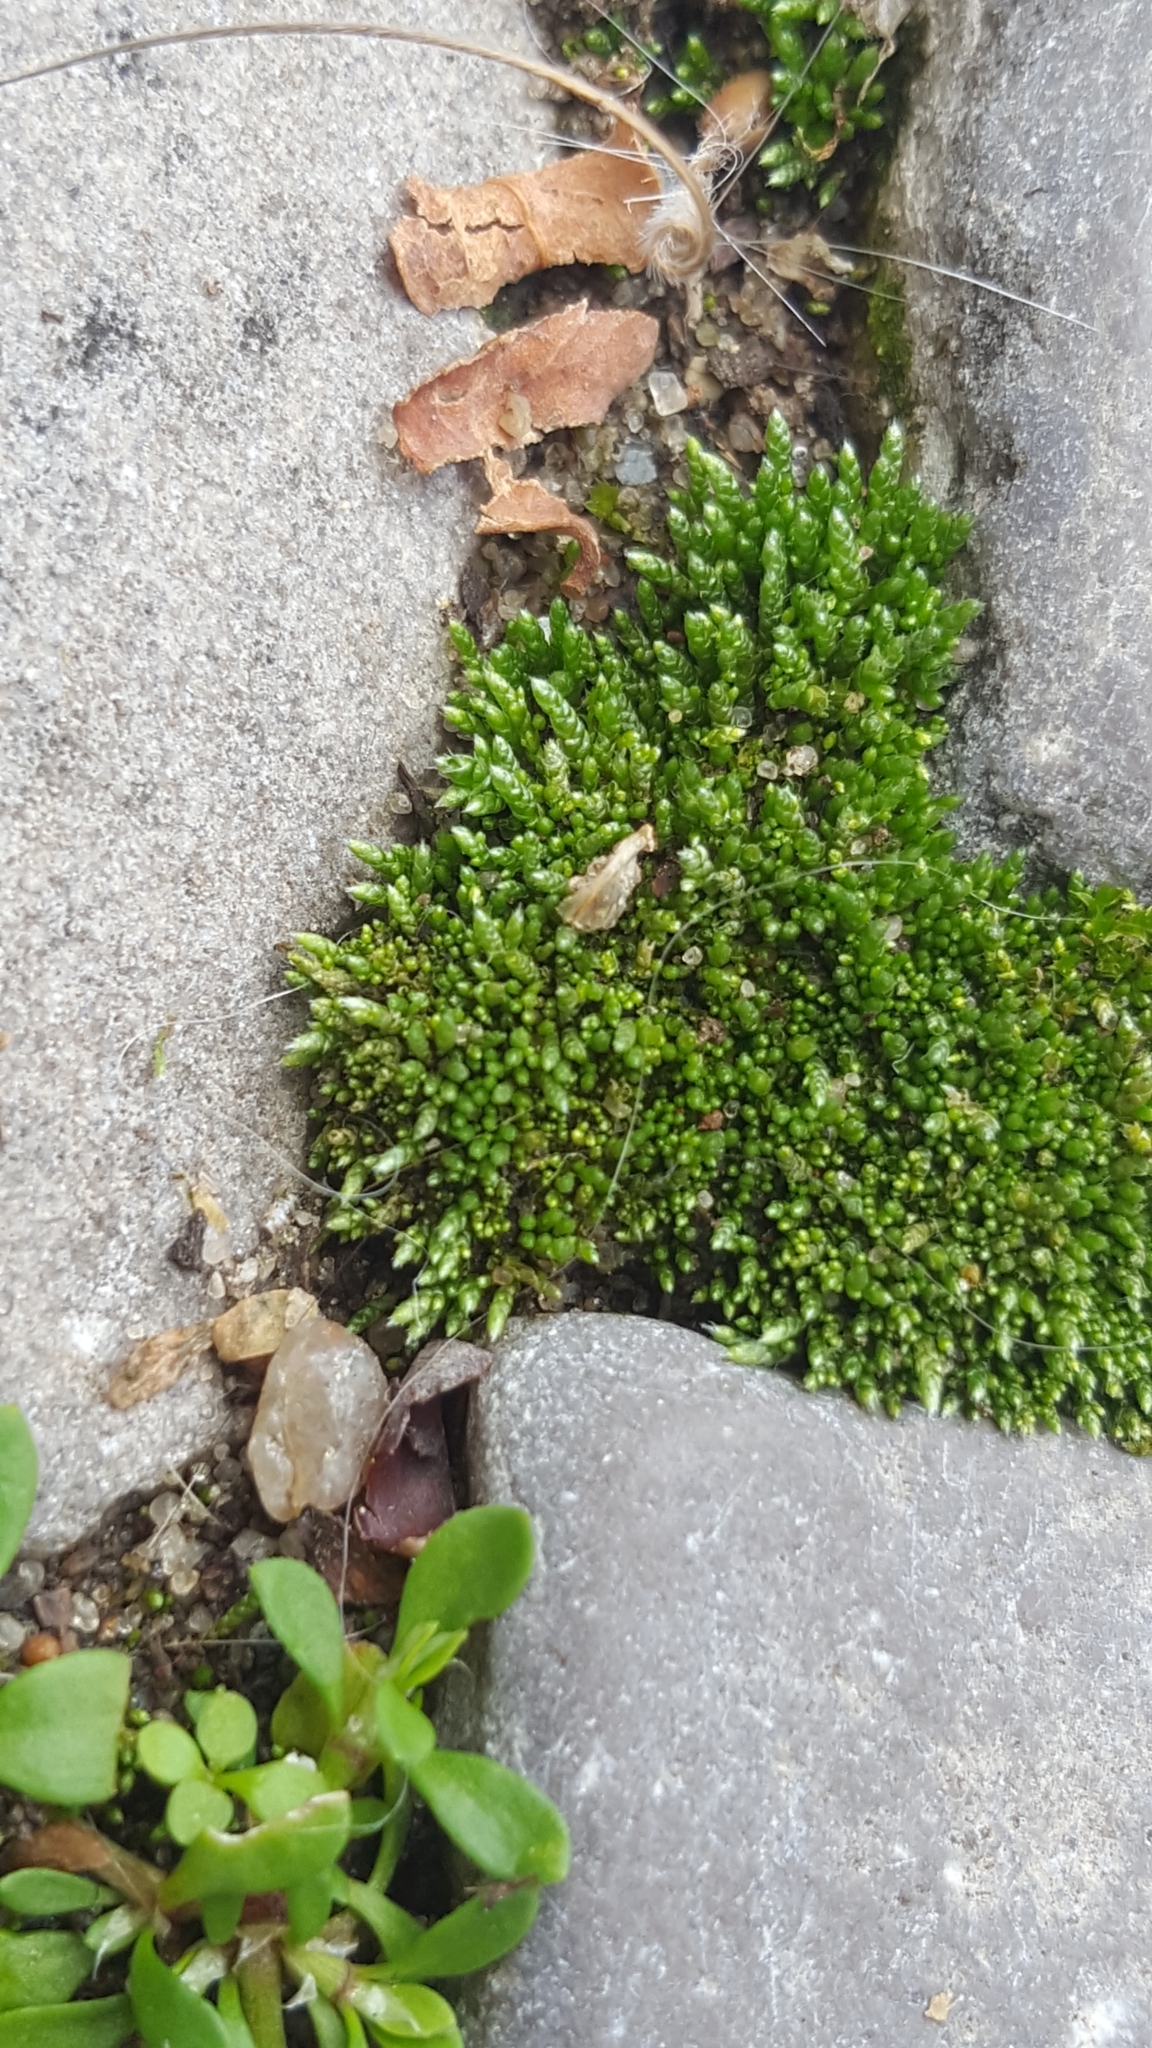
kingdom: Plantae
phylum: Bryophyta
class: Bryopsida
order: Bryales
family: Bryaceae
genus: Bryum
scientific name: Bryum argenteum
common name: Silver-moss
